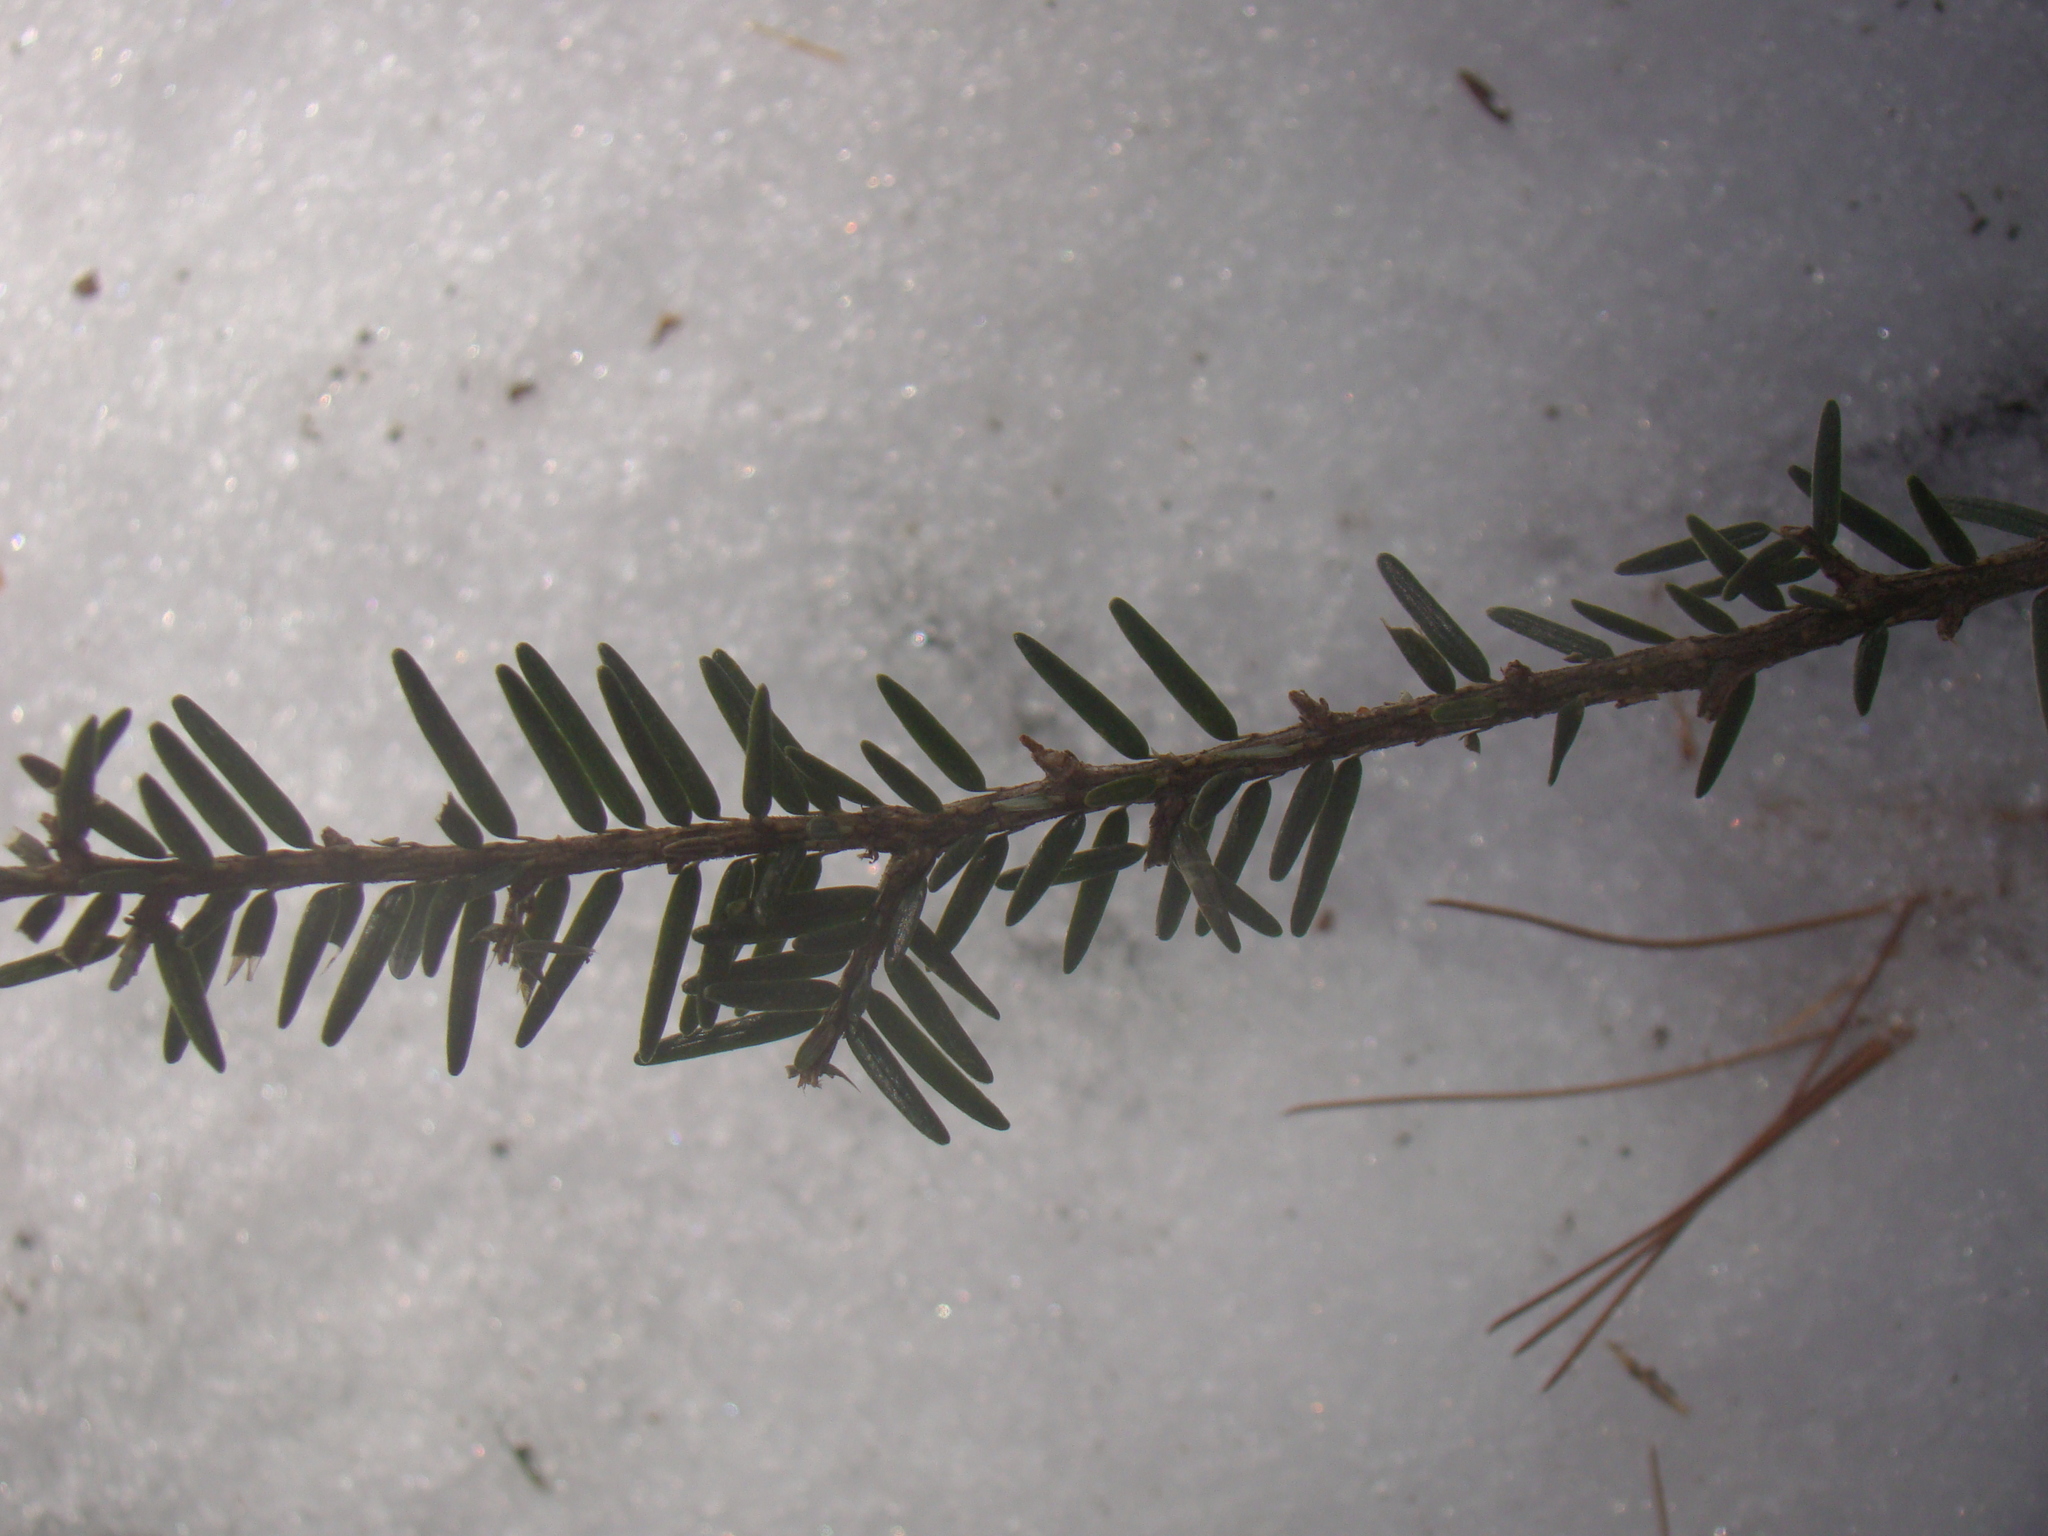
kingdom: Plantae
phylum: Tracheophyta
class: Pinopsida
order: Pinales
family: Pinaceae
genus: Tsuga
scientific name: Tsuga canadensis
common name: Eastern hemlock
